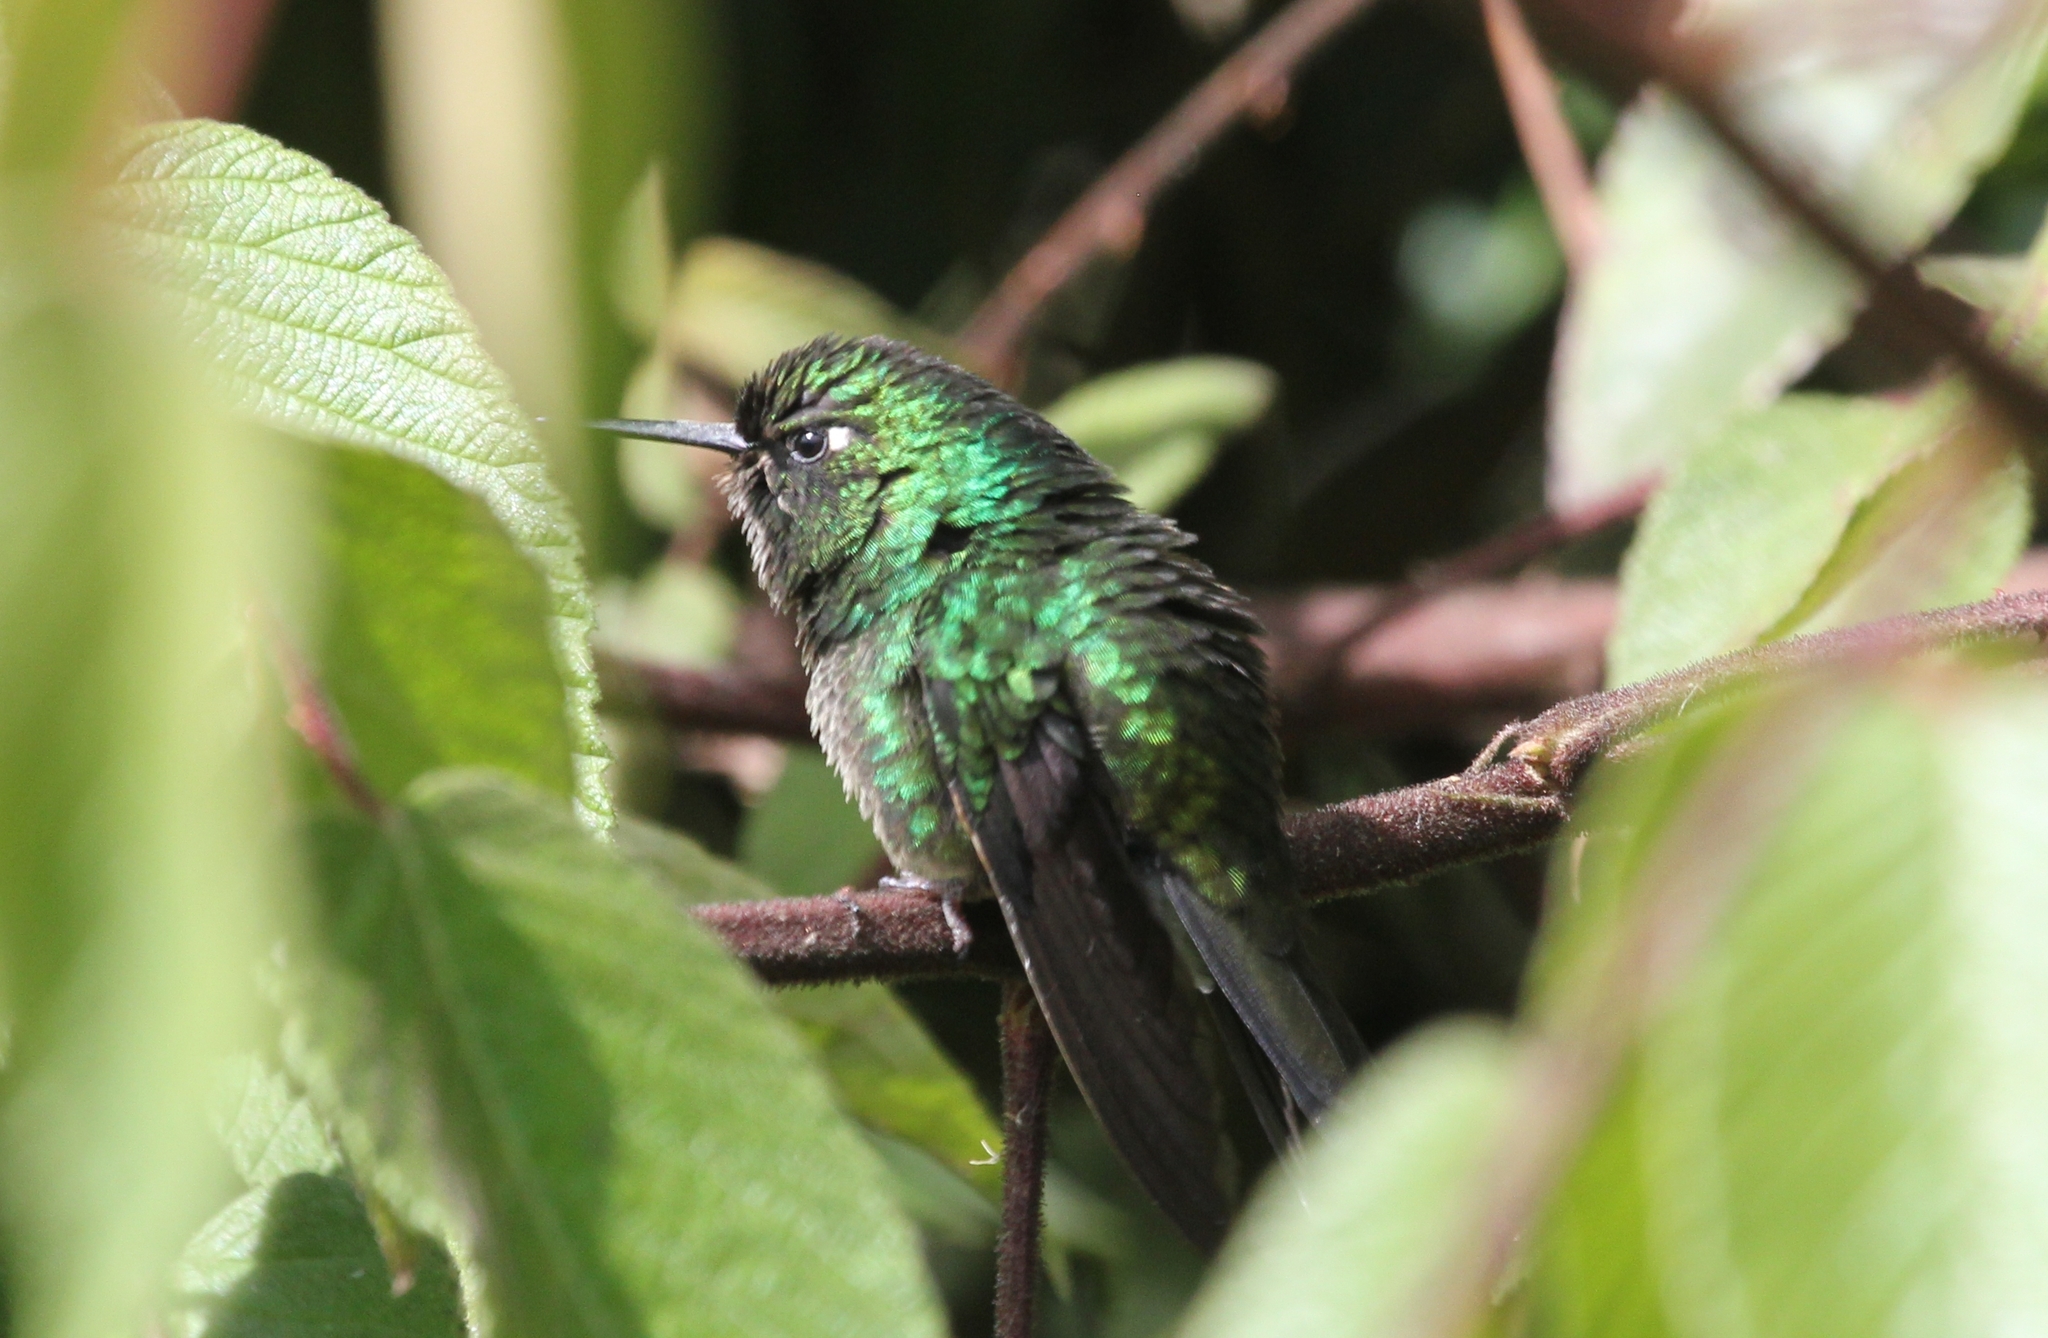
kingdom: Animalia
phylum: Chordata
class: Aves
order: Apodiformes
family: Trochilidae
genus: Metallura
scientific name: Metallura tyrianthina
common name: Tyrian metaltail
